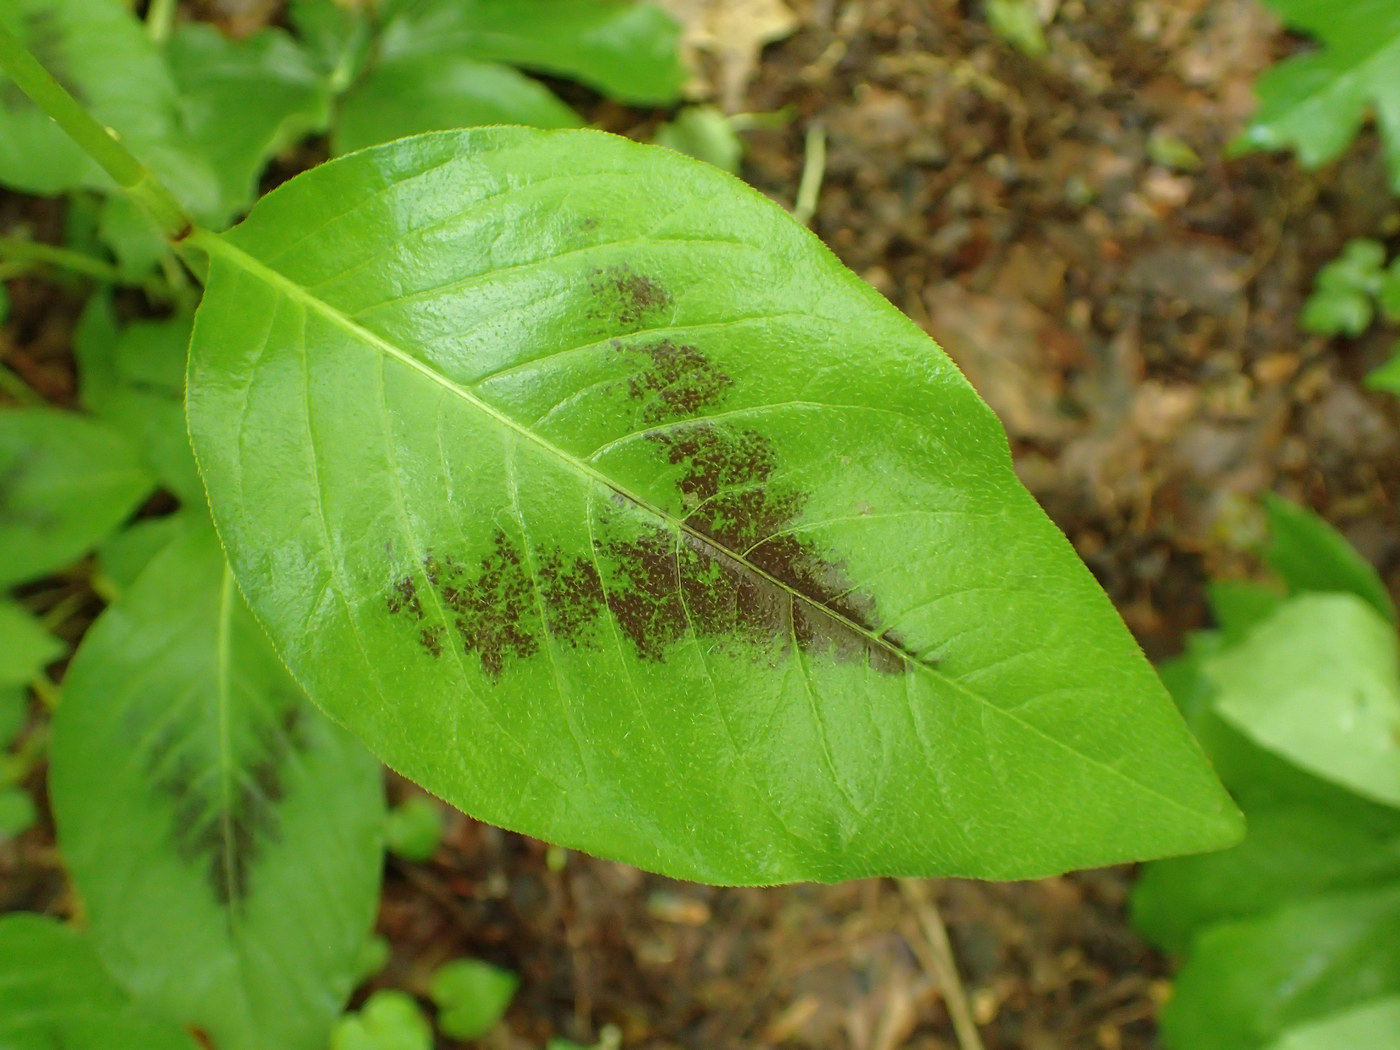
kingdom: Plantae
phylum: Tracheophyta
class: Magnoliopsida
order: Caryophyllales
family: Polygonaceae
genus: Persicaria
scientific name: Persicaria virginiana
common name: Jumpseed
